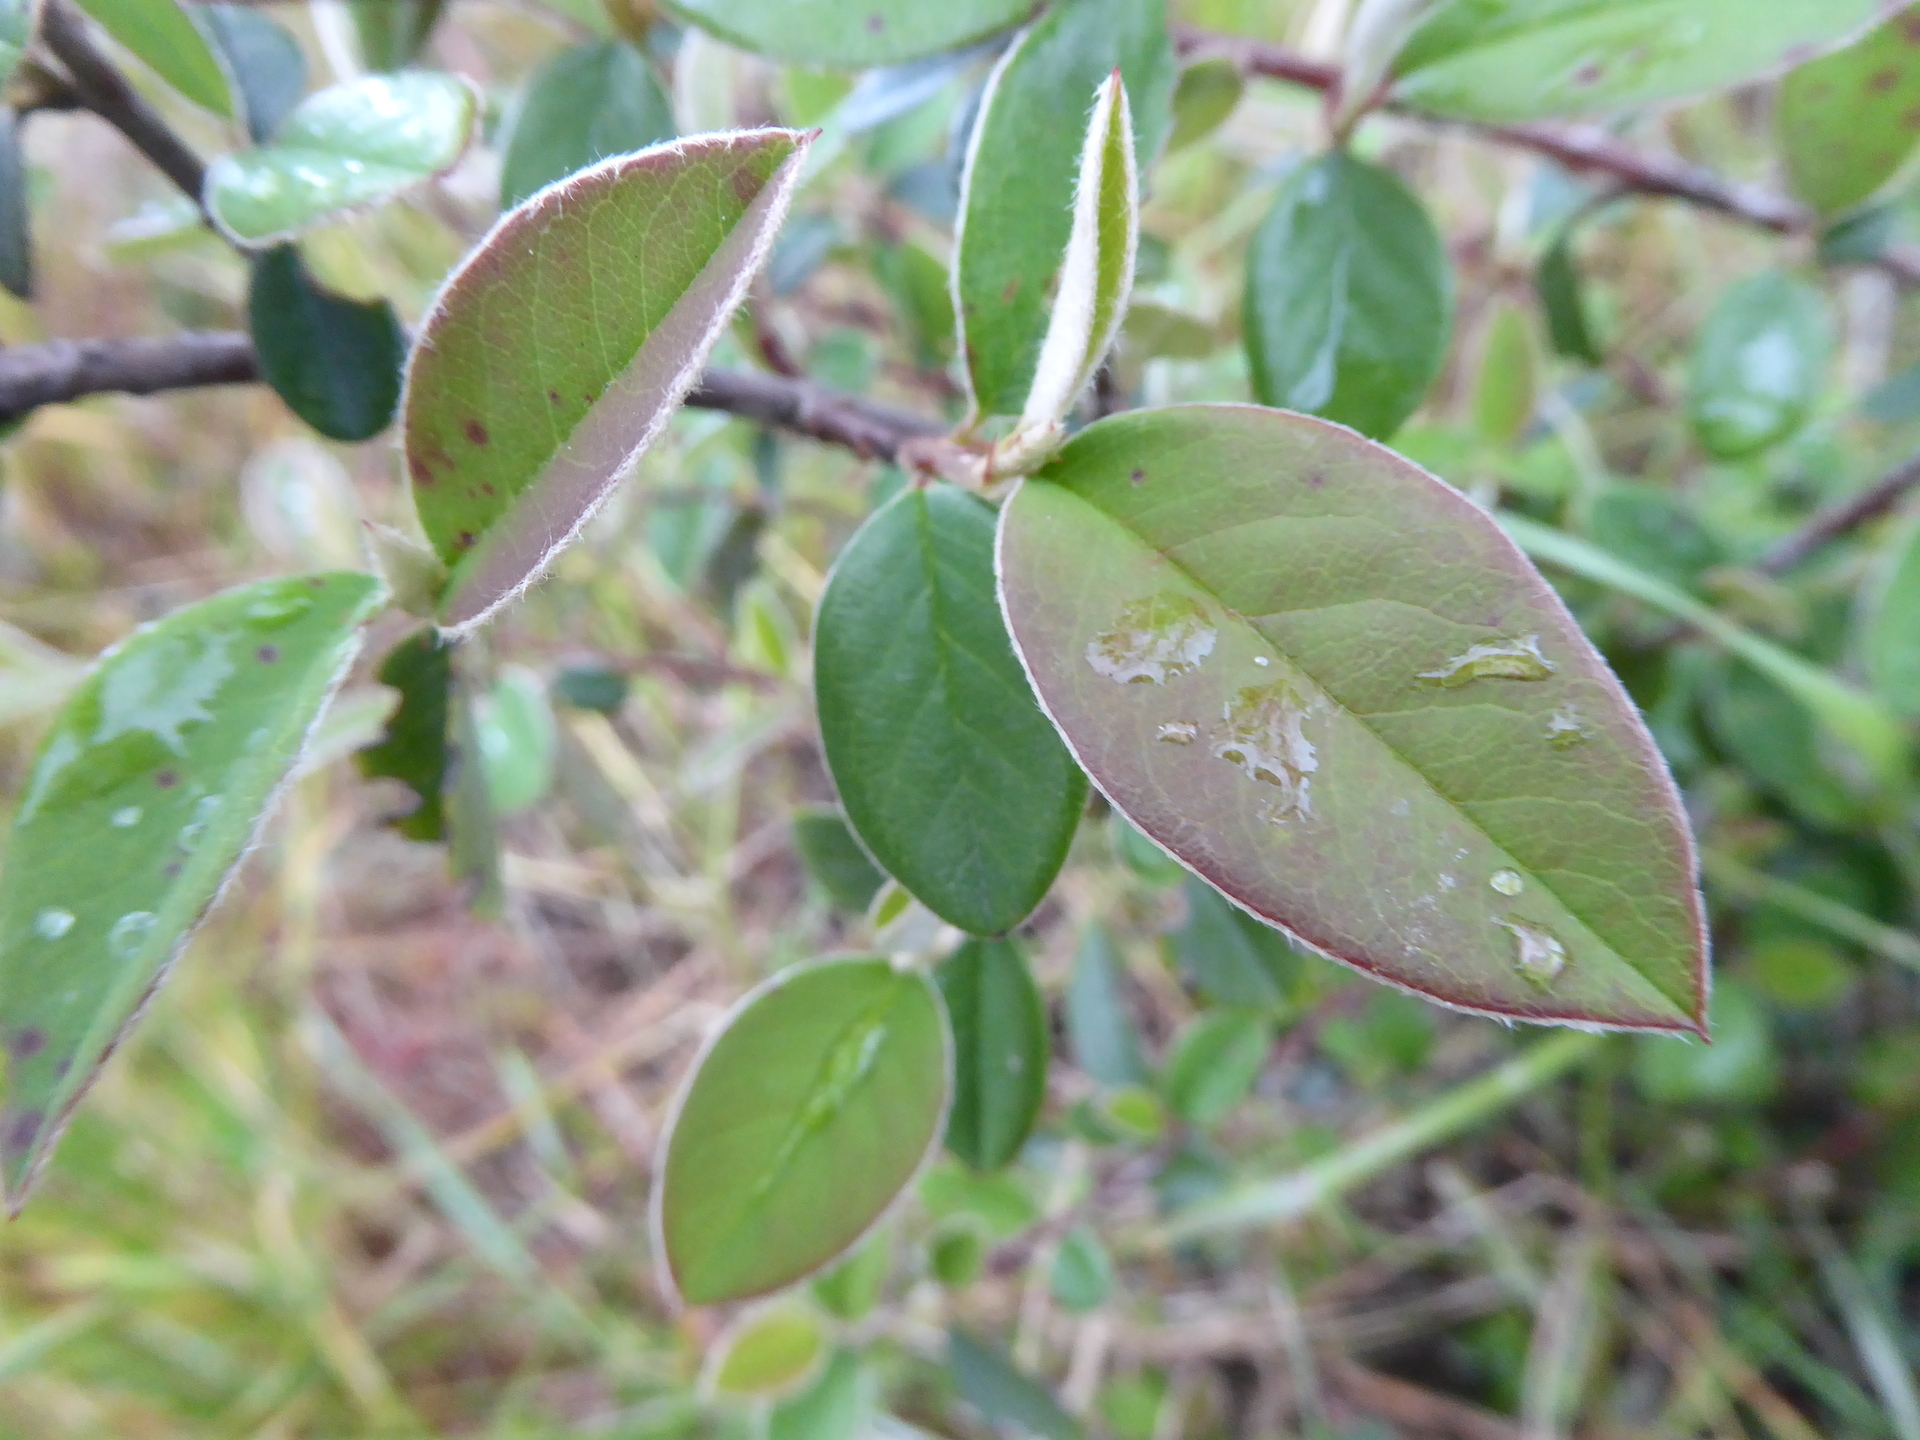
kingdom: Plantae
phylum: Tracheophyta
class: Magnoliopsida
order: Rosales
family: Rosaceae
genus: Cotoneaster
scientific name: Cotoneaster pannosus
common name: Silverleaf cotoneaster
